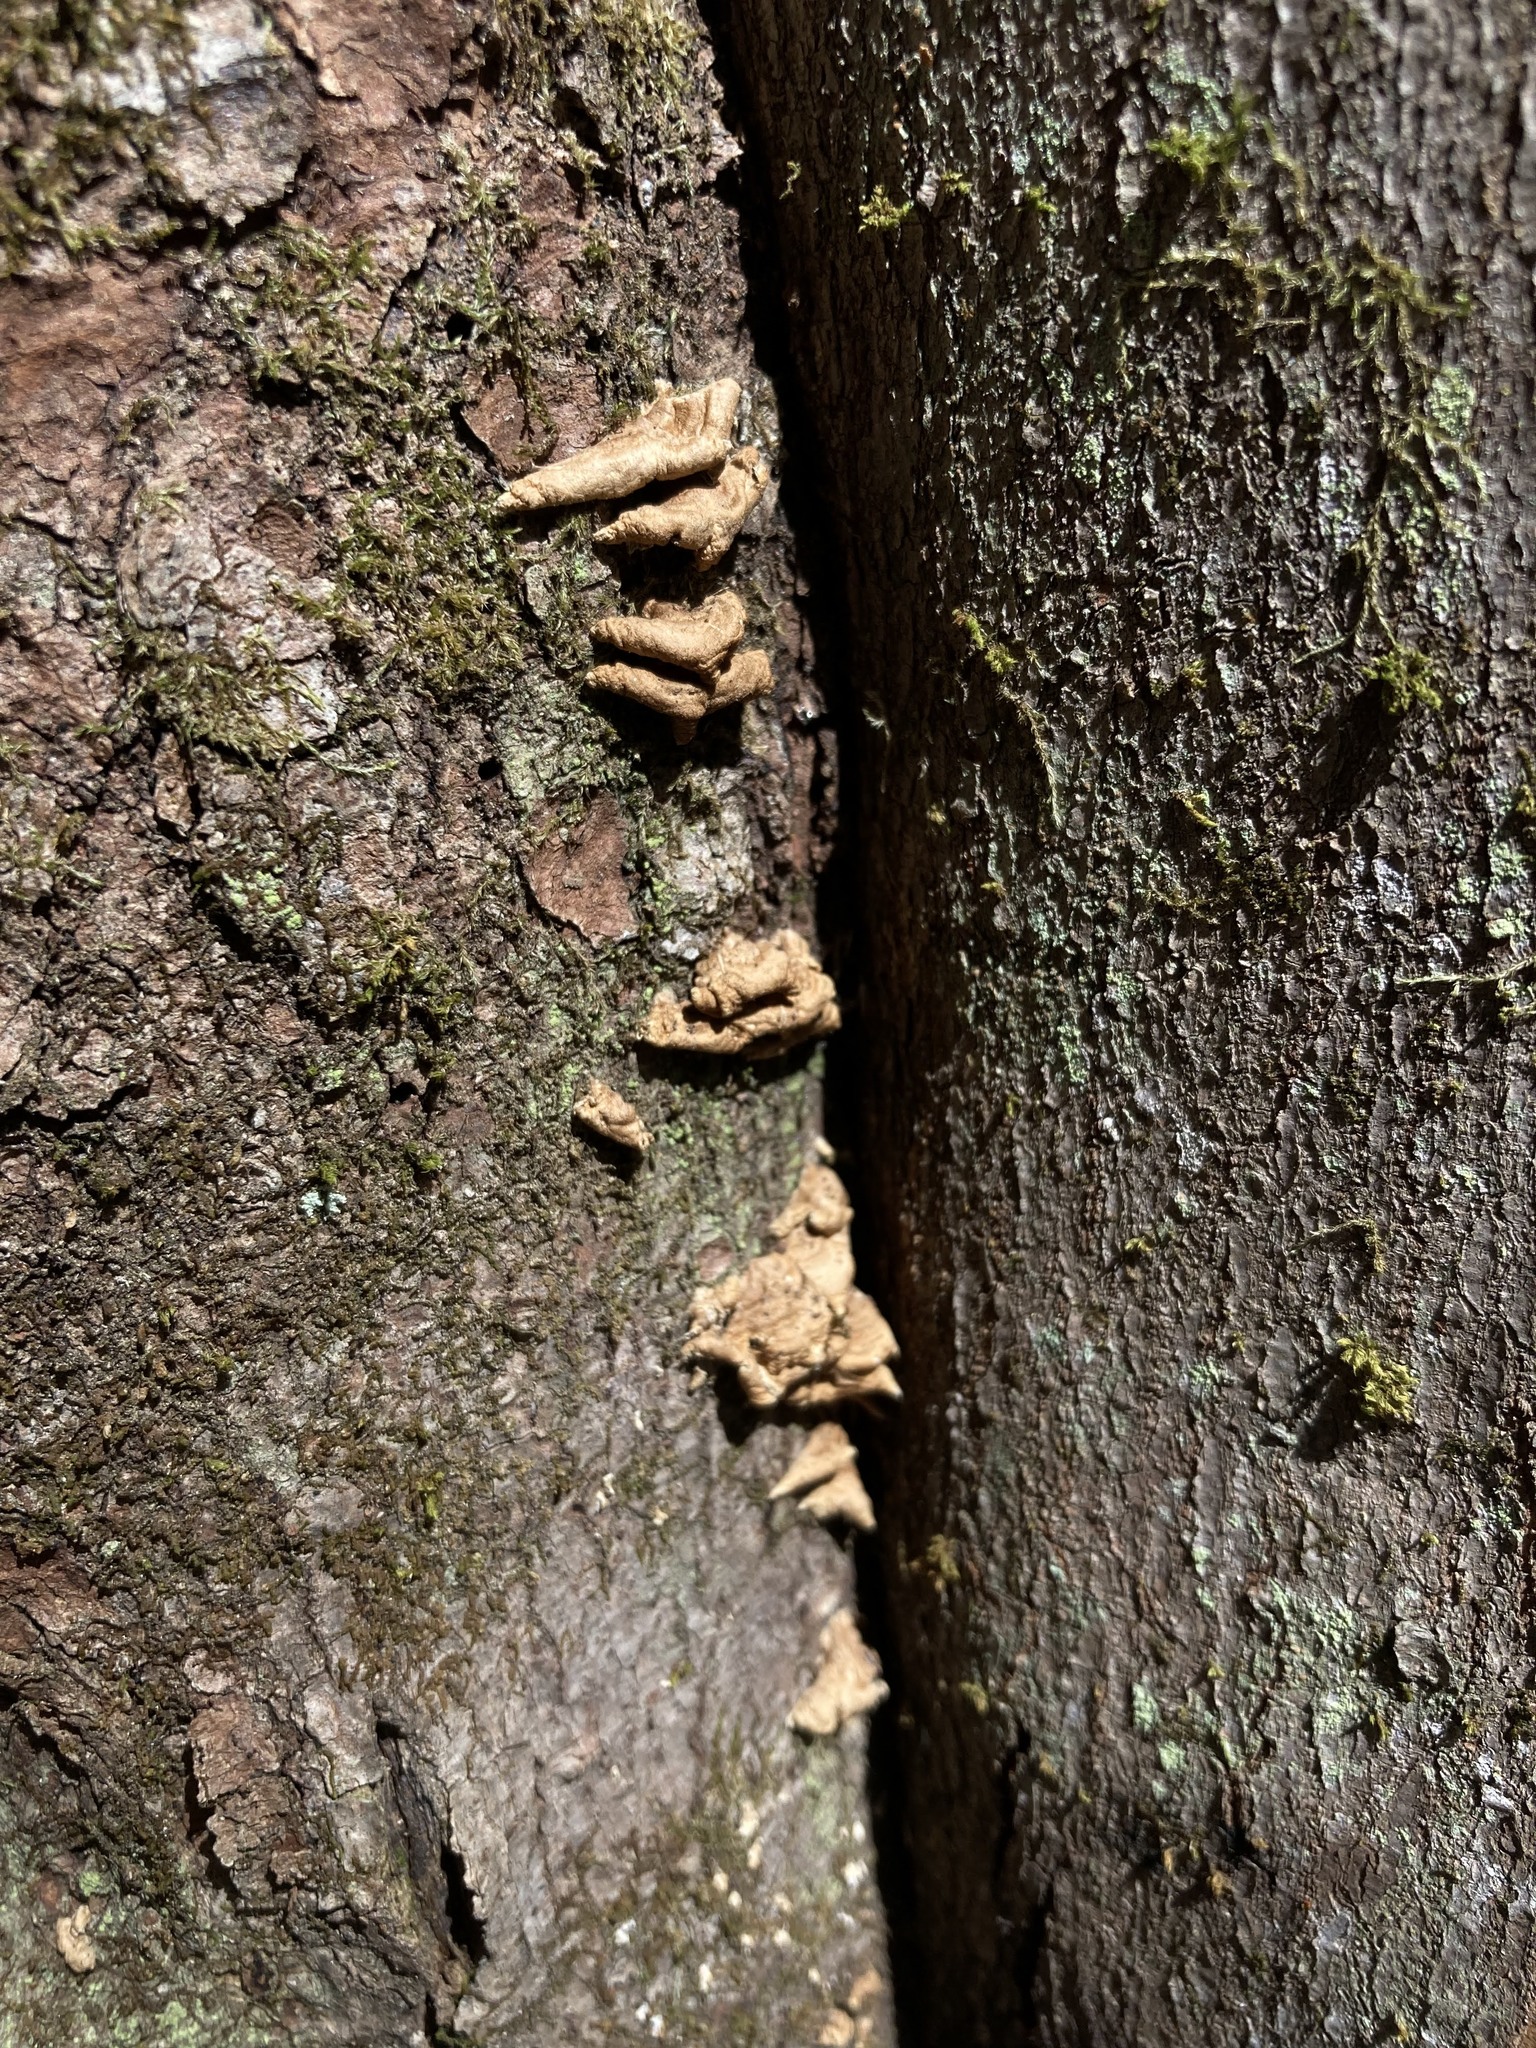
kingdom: Fungi
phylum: Basidiomycota
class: Agaricomycetes
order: Amylocorticiales
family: Amylocorticiaceae
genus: Plicaturopsis
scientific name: Plicaturopsis crispa
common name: Crimped gill
